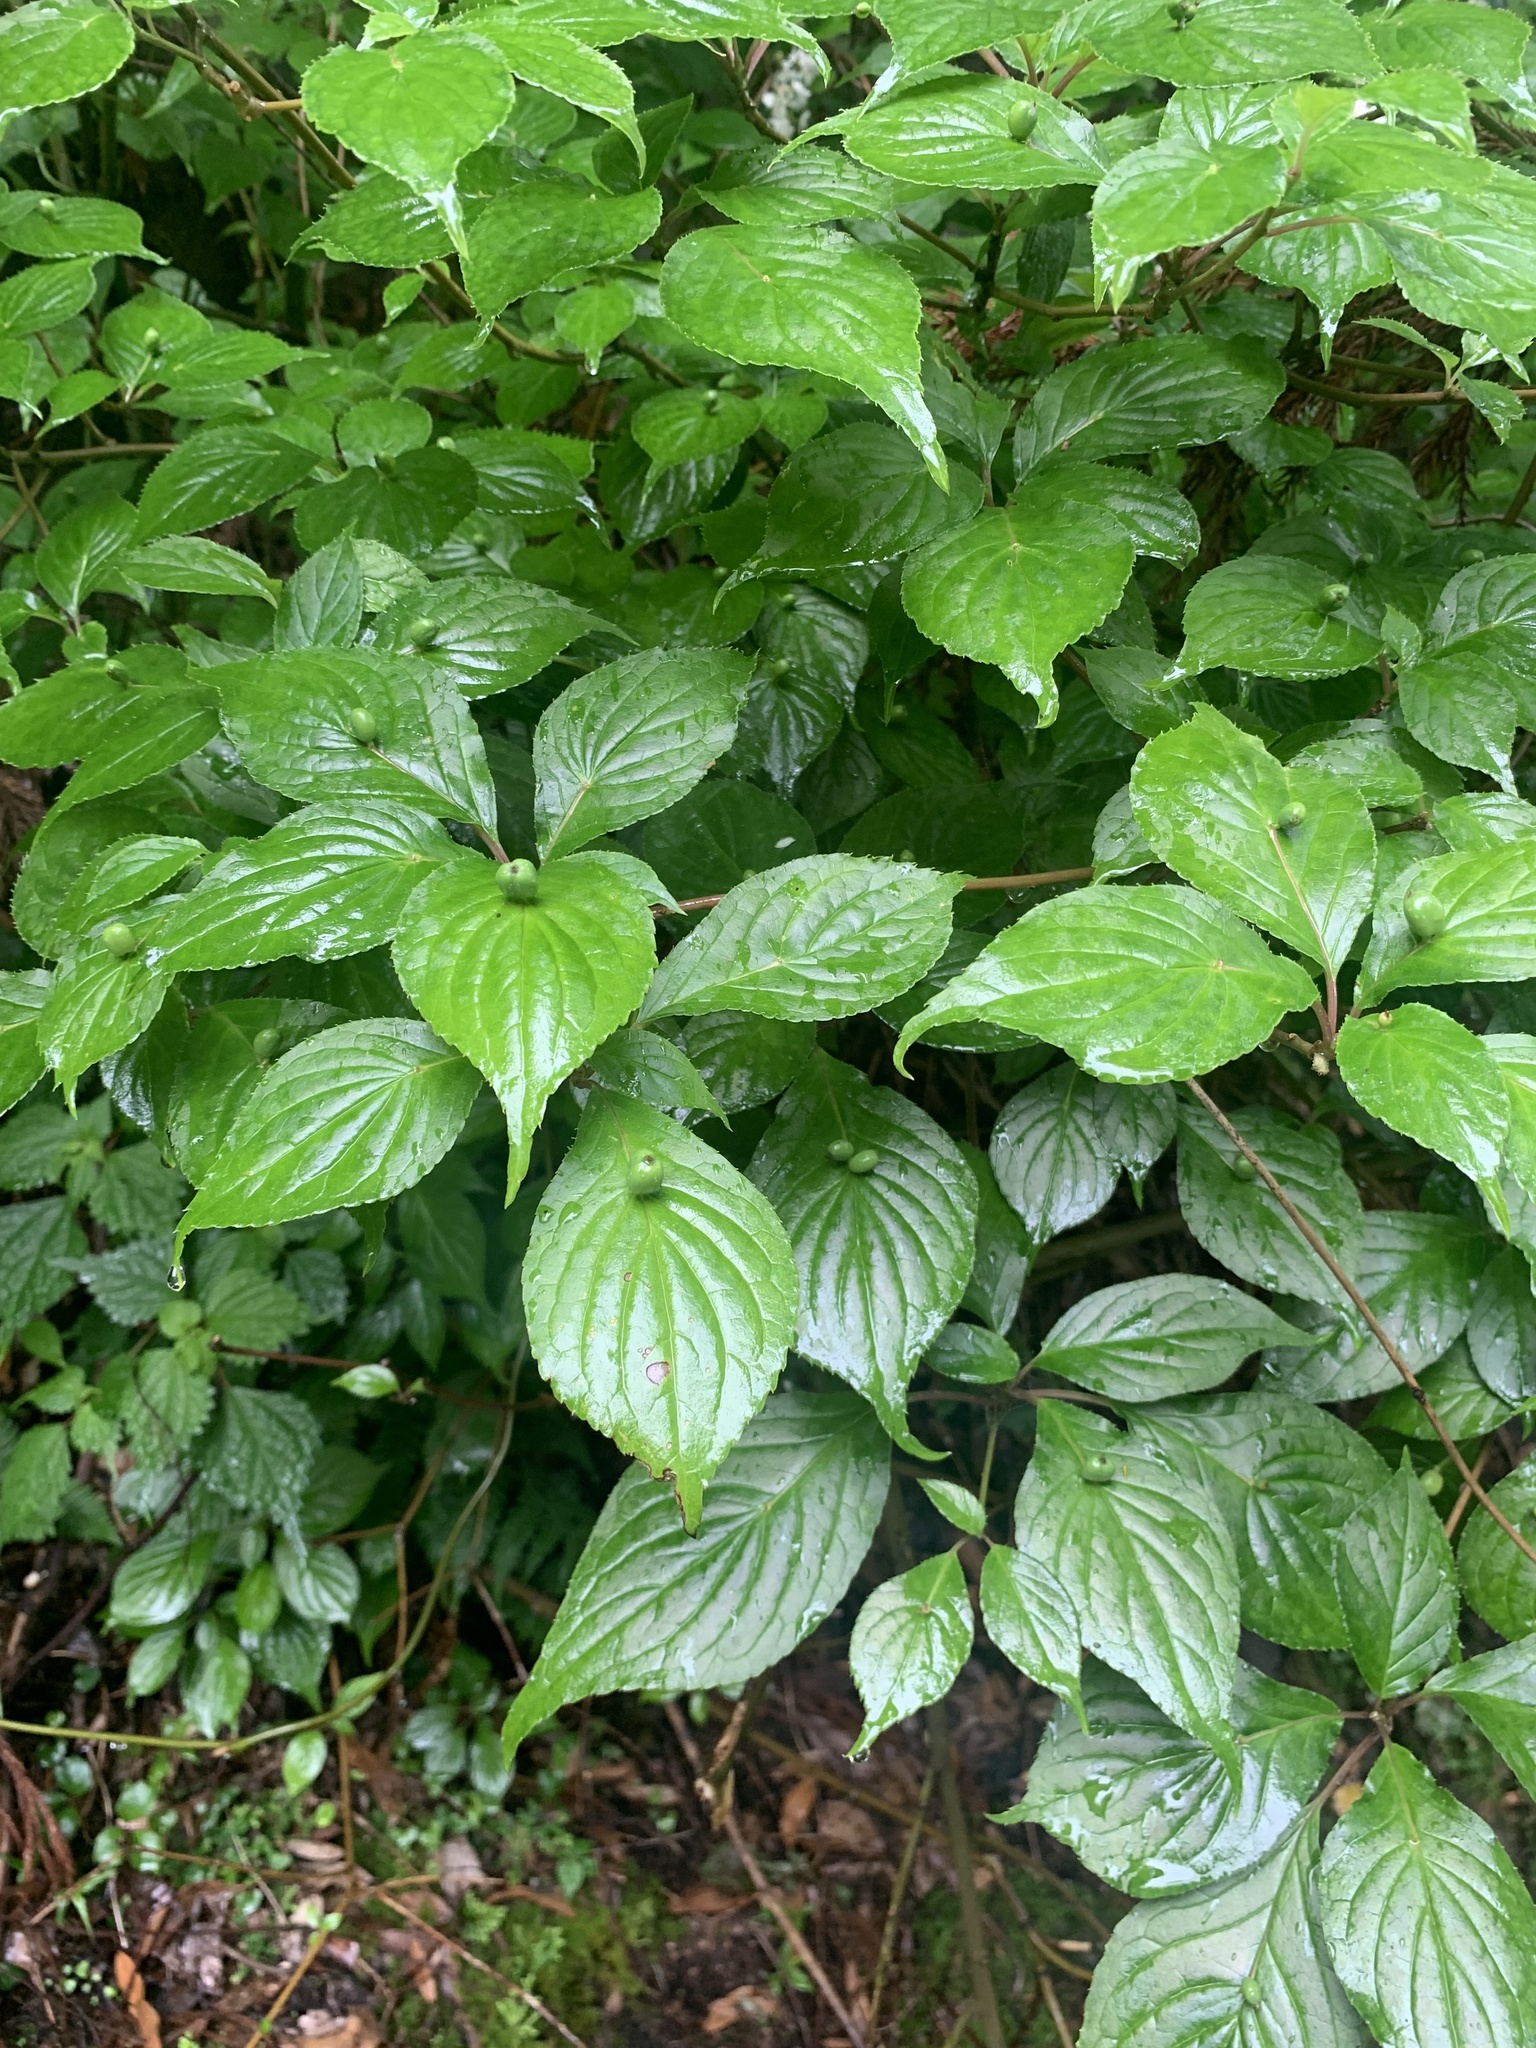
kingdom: Plantae
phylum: Tracheophyta
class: Magnoliopsida
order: Aquifoliales
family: Helwingiaceae
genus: Helwingia
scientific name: Helwingia japonica
